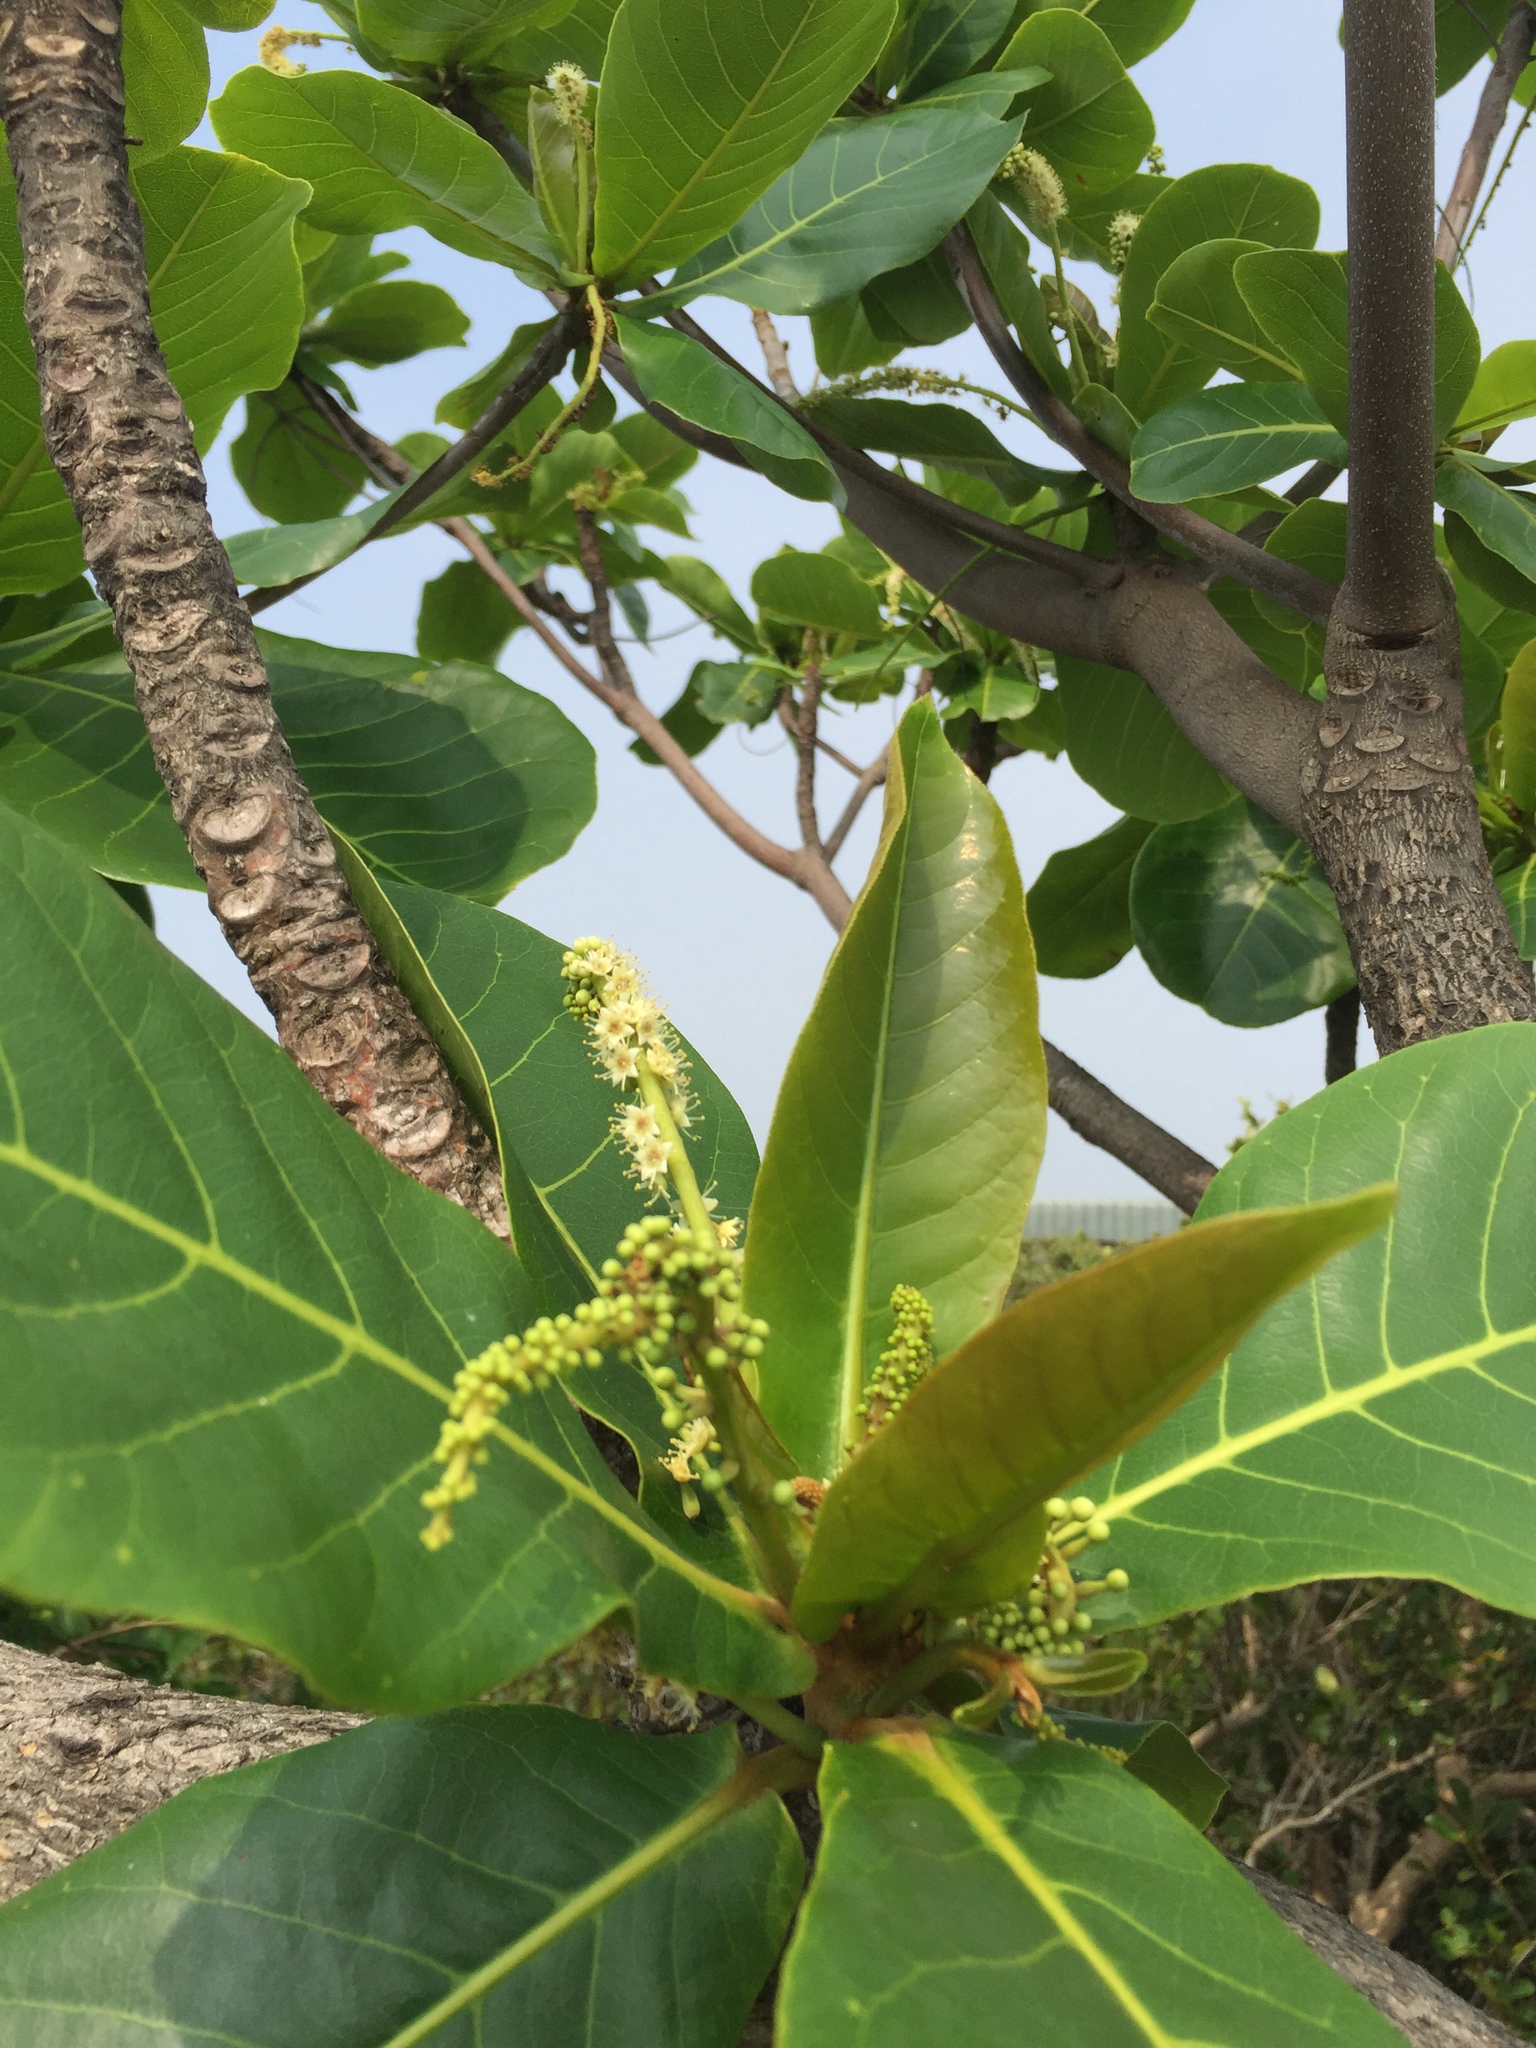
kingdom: Plantae
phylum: Tracheophyta
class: Magnoliopsida
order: Myrtales
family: Combretaceae
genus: Terminalia
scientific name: Terminalia catappa
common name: Tropical almond
